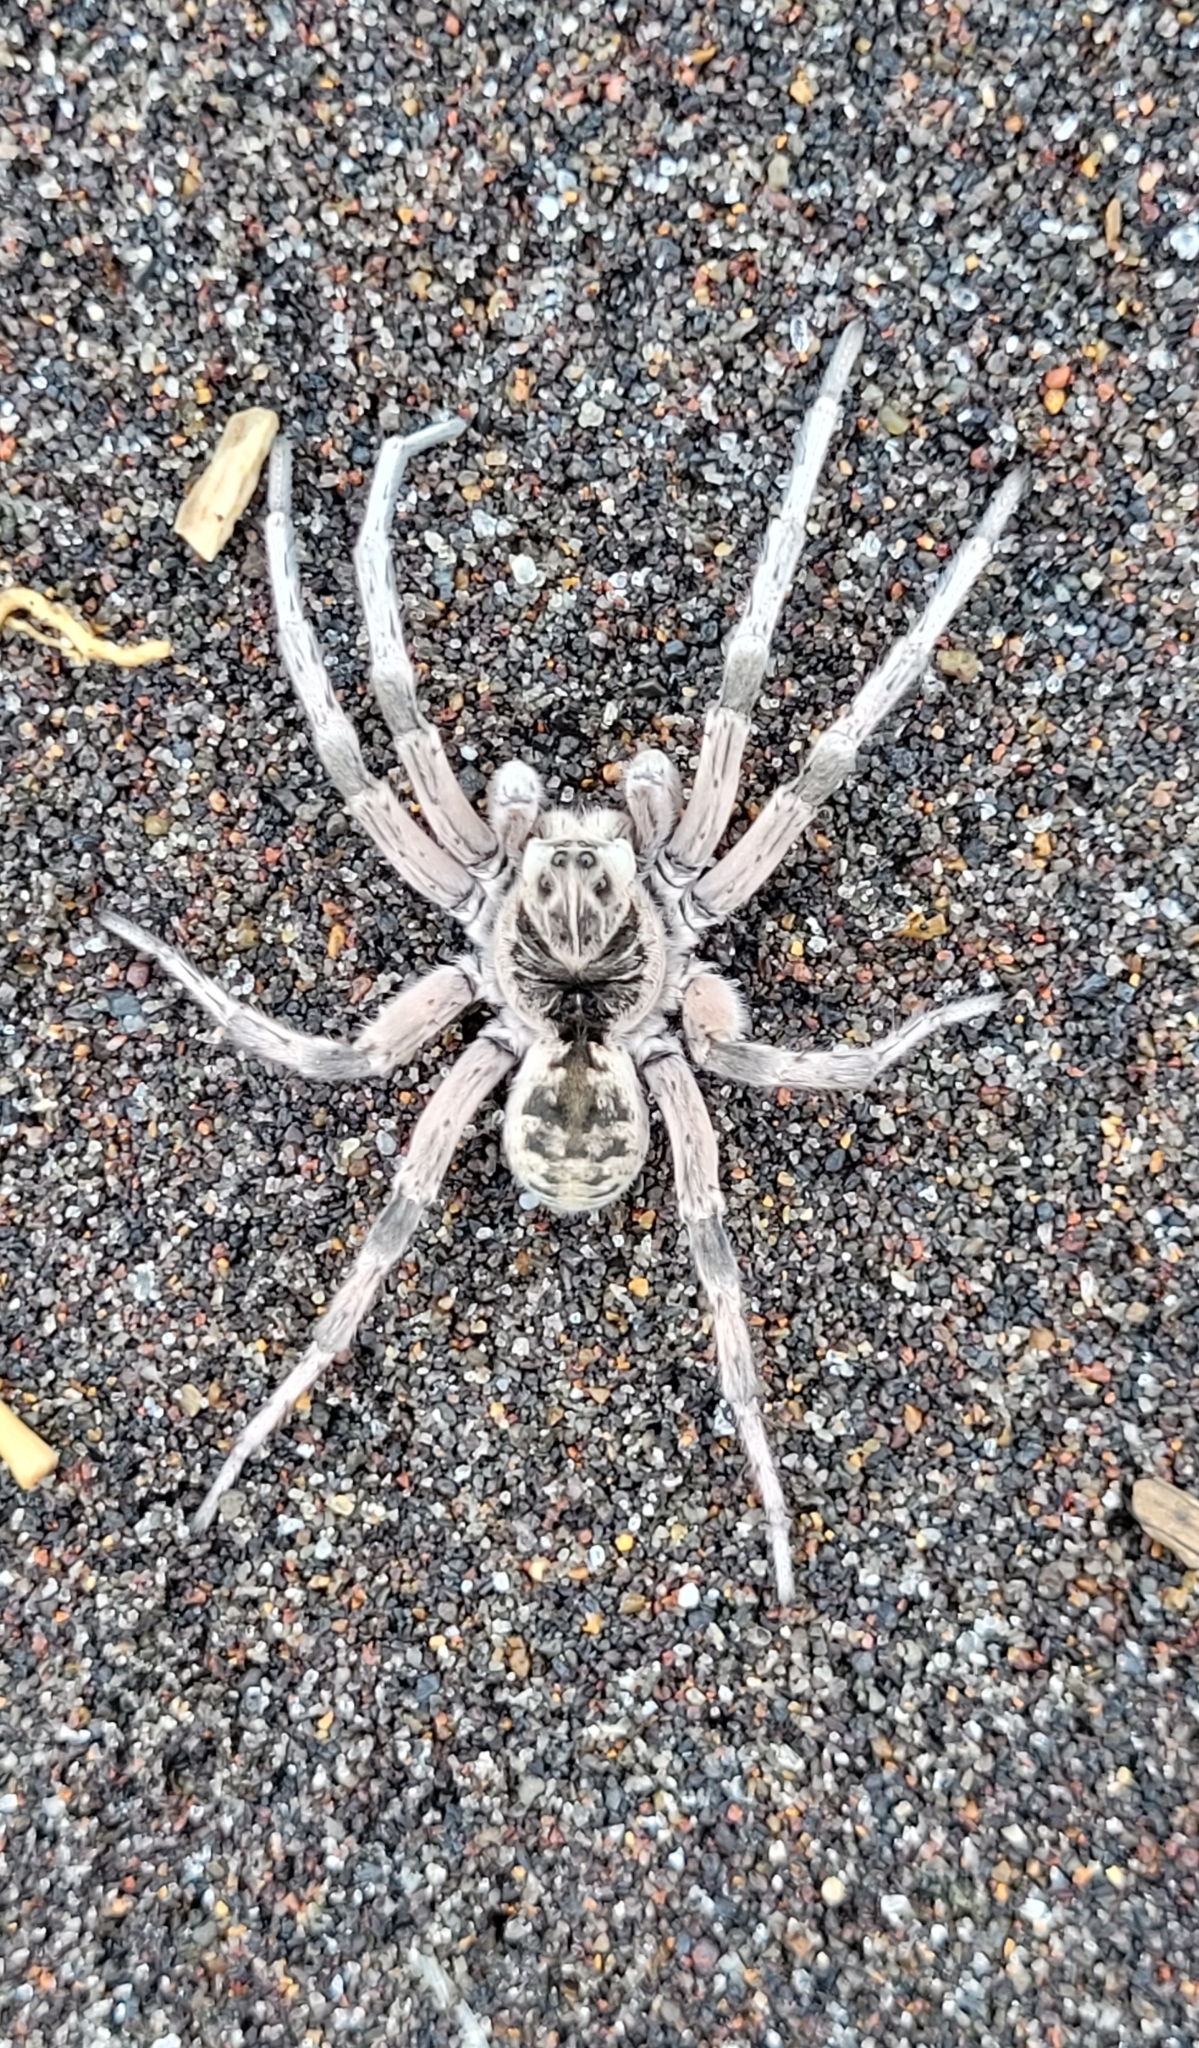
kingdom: Animalia
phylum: Arthropoda
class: Arachnida
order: Araneae
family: Lycosidae
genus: Lycosa
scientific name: Lycosa ishikariana
